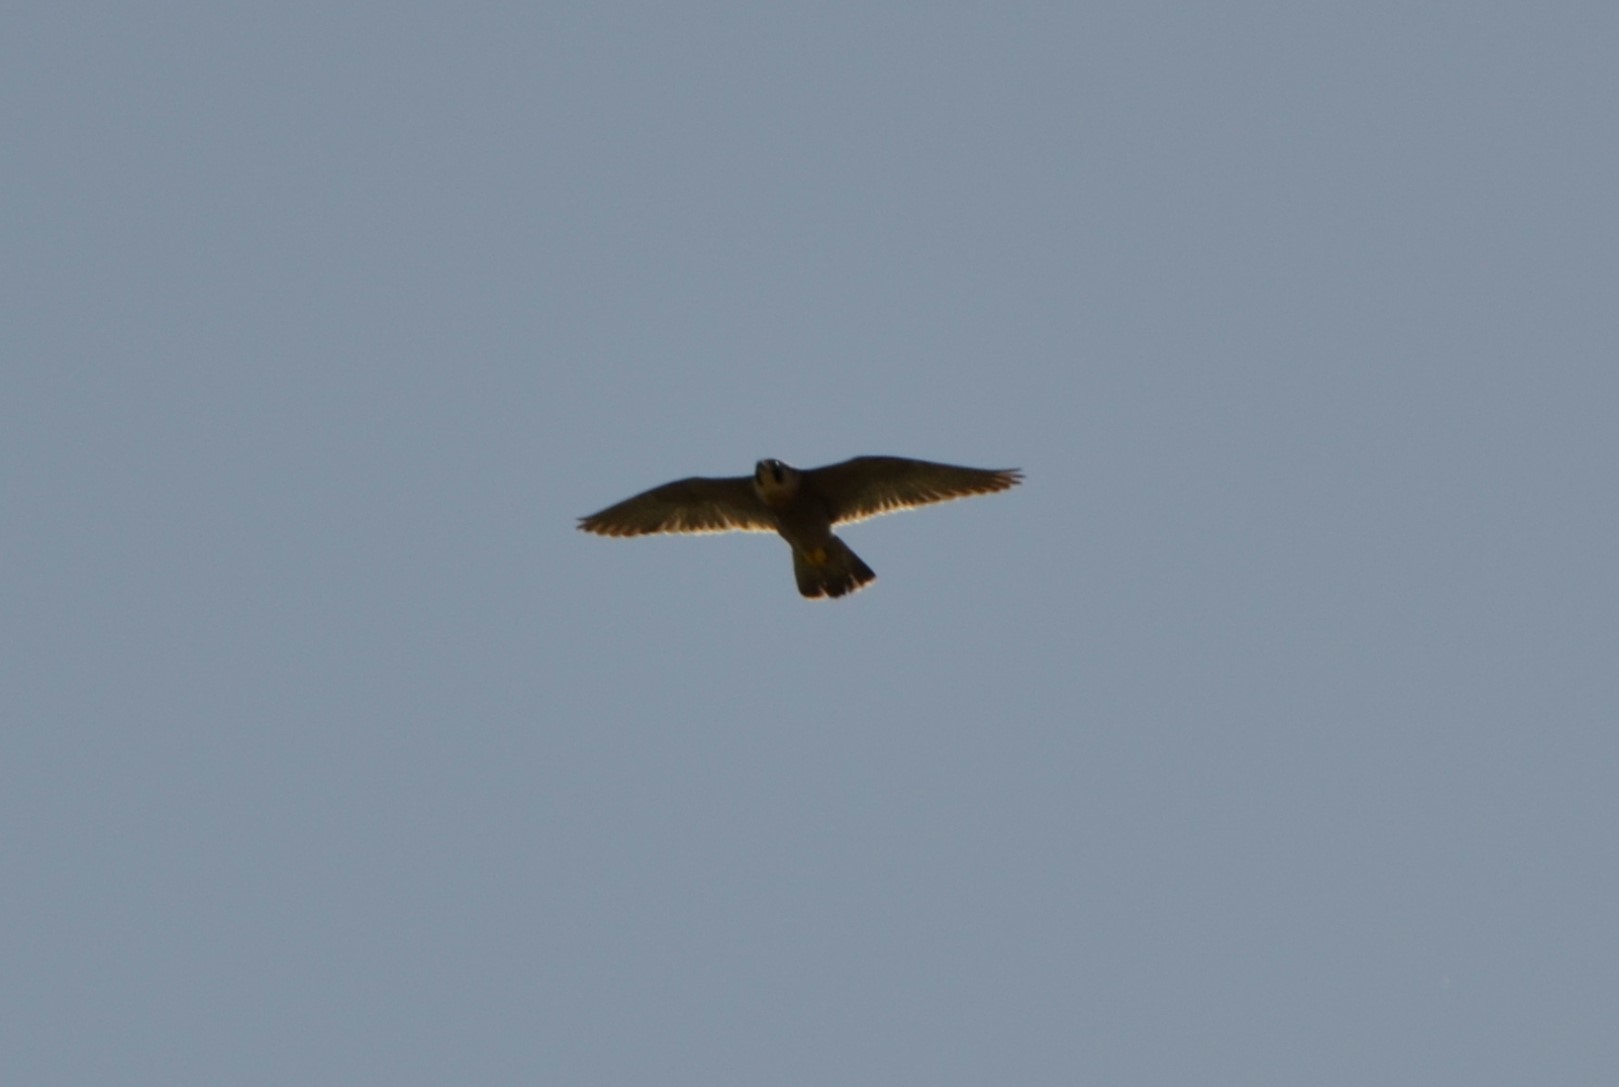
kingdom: Animalia
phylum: Chordata
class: Aves
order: Falconiformes
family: Falconidae
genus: Falco
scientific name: Falco peregrinus
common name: Peregrine falcon
